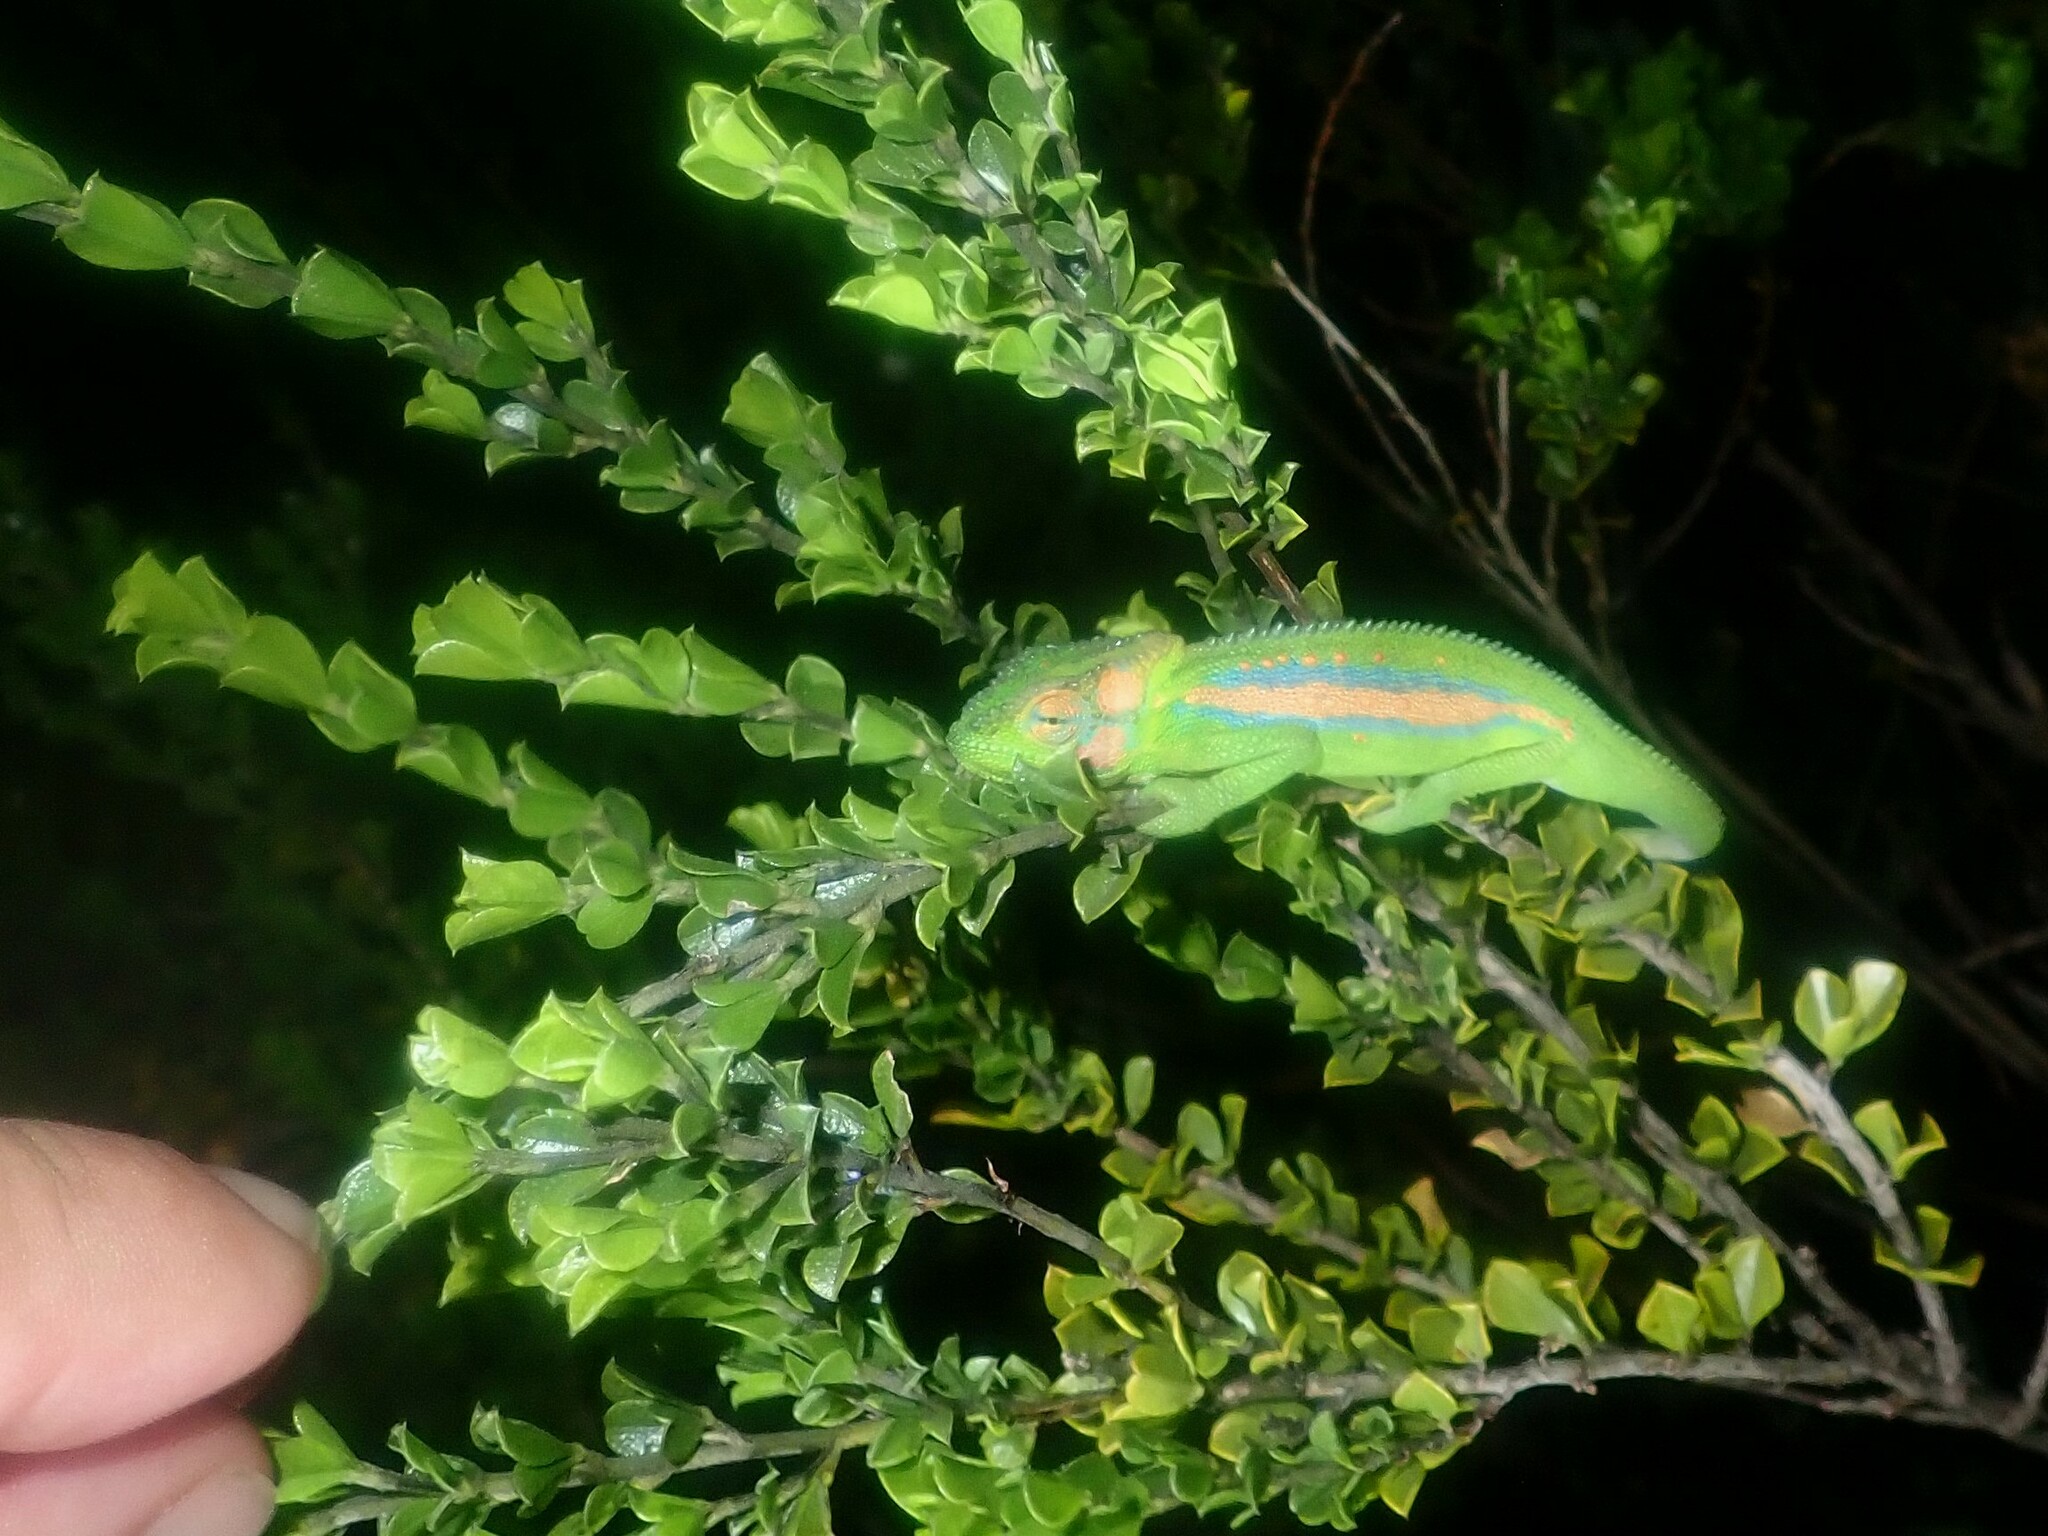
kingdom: Animalia
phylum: Chordata
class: Squamata
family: Chamaeleonidae
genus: Bradypodion
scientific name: Bradypodion pumilum
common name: Cape dwarf chameleon
